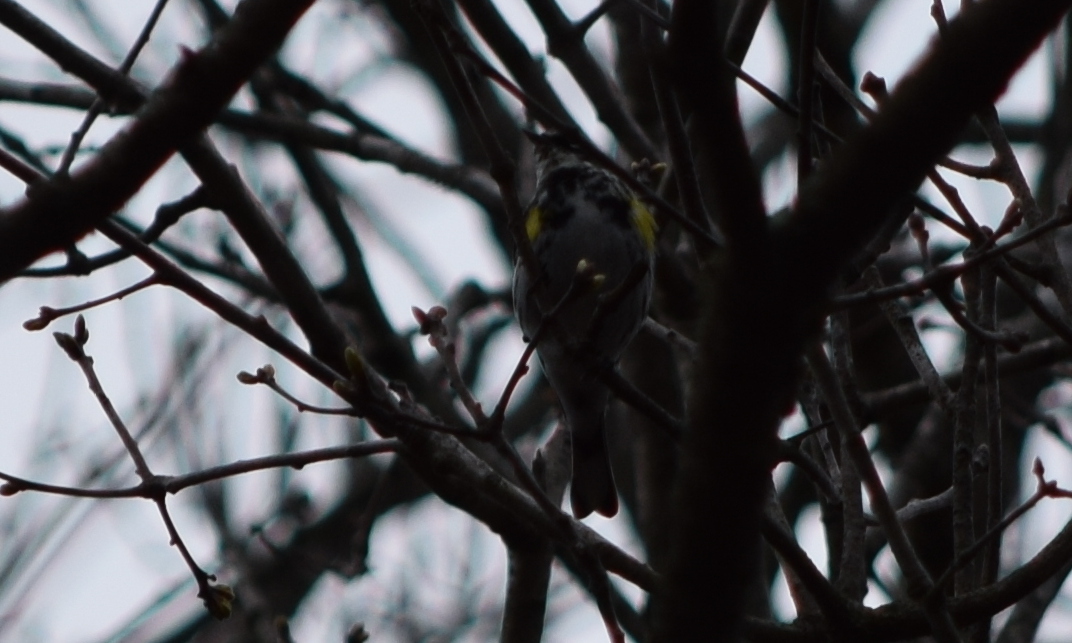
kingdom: Animalia
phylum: Chordata
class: Aves
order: Passeriformes
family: Parulidae
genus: Setophaga
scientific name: Setophaga coronata
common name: Myrtle warbler
